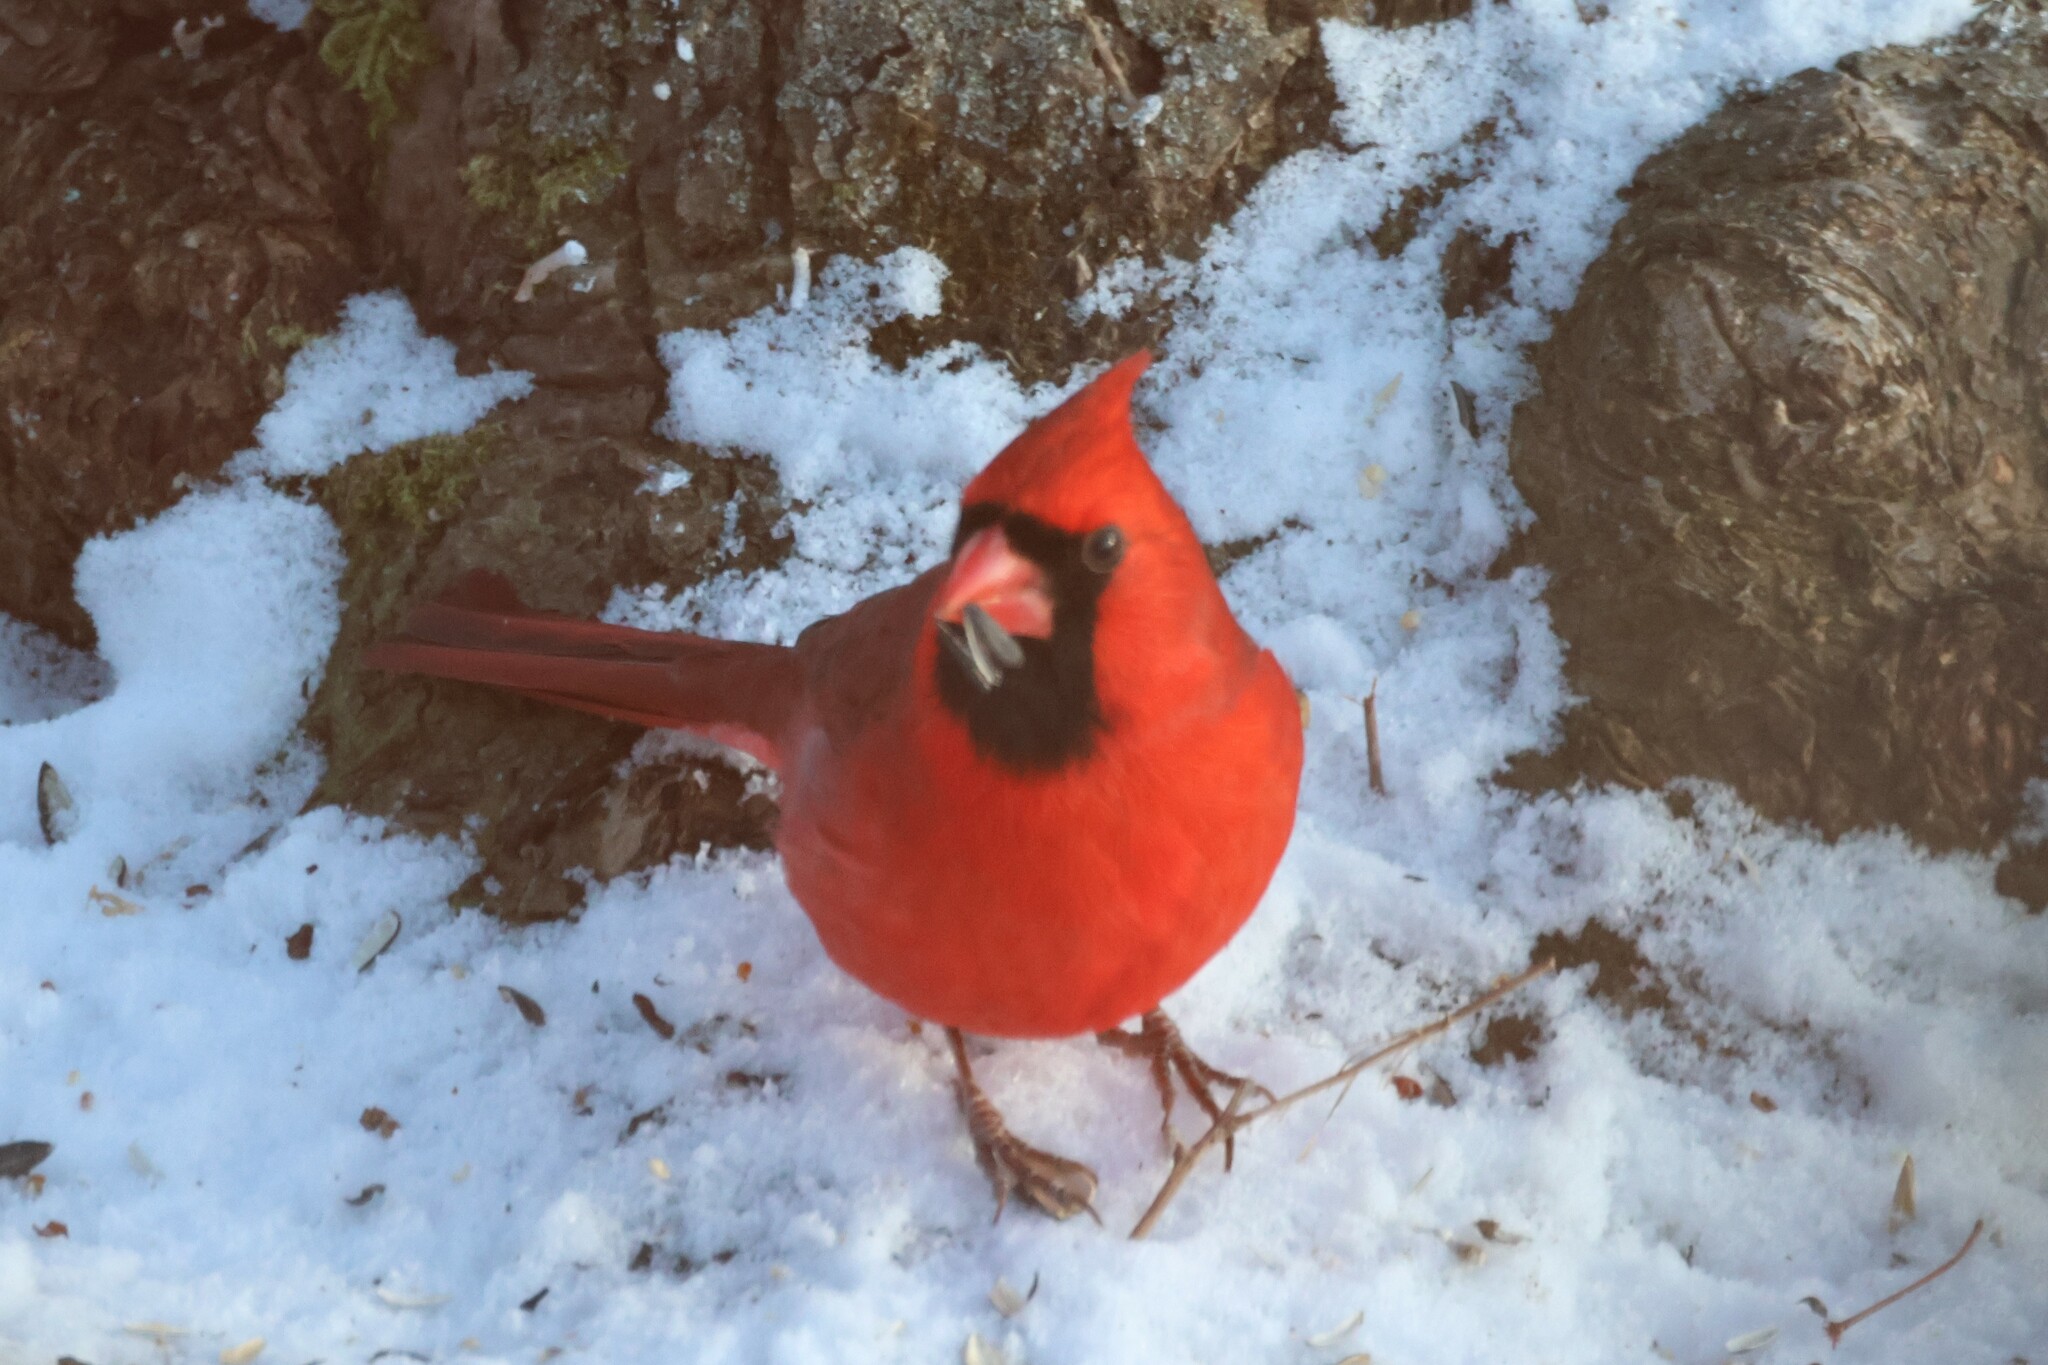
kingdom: Animalia
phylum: Chordata
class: Aves
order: Passeriformes
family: Cardinalidae
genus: Cardinalis
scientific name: Cardinalis cardinalis
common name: Northern cardinal
